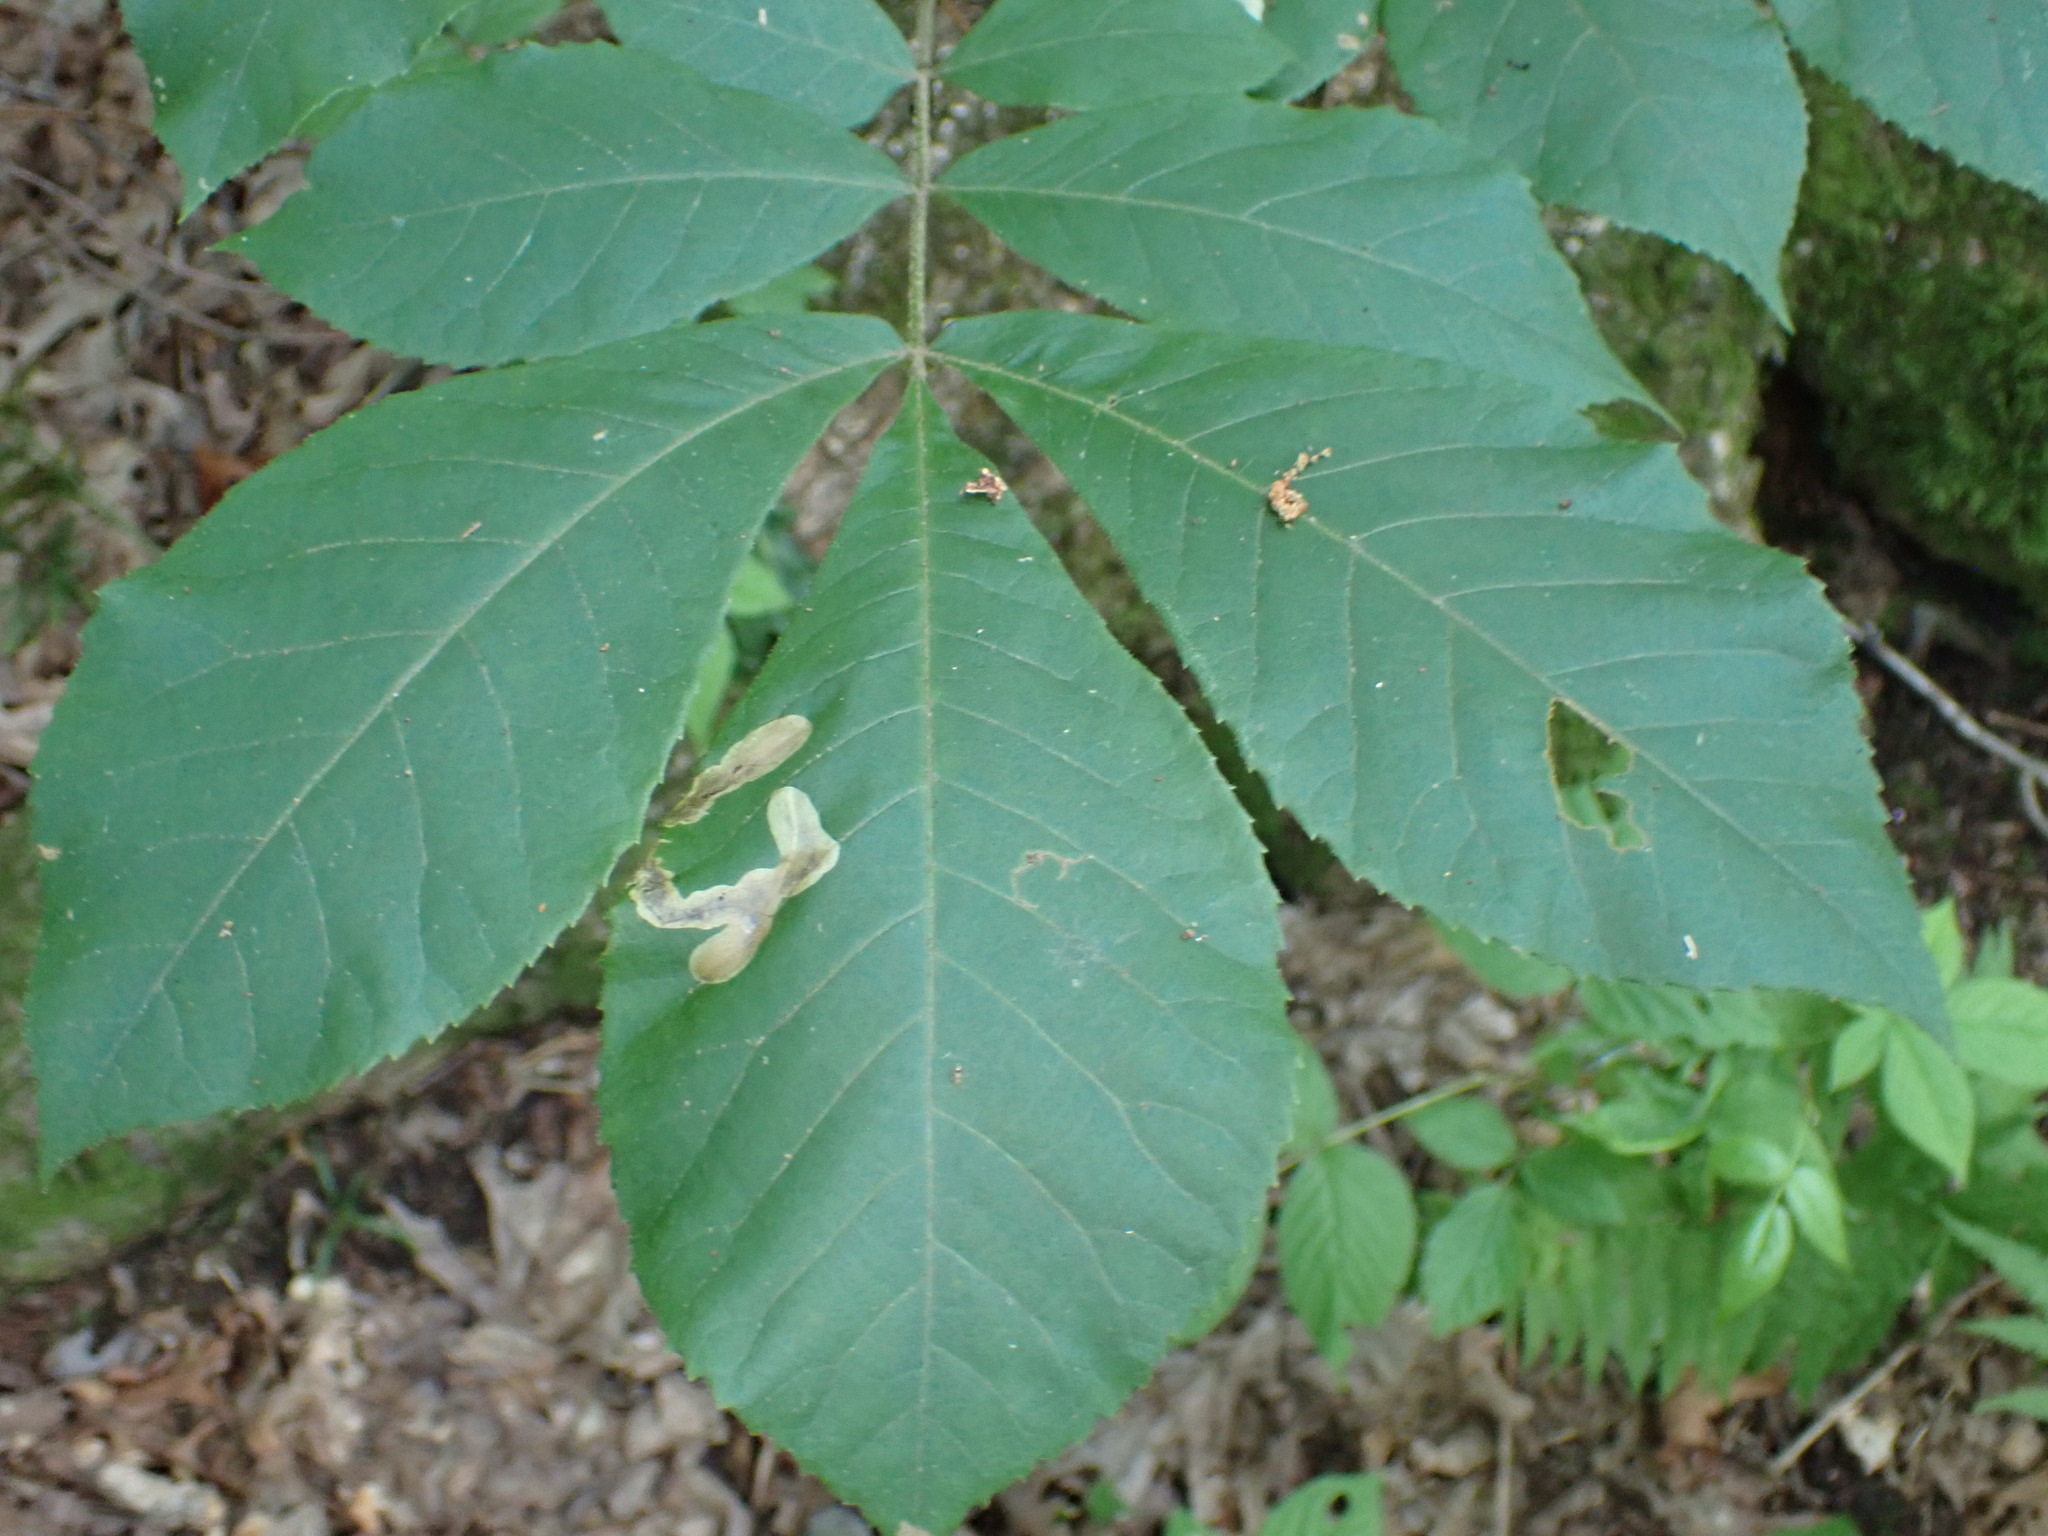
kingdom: Animalia
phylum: Arthropoda
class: Insecta
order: Lepidoptera
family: Gracillariidae
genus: Cameraria
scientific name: Cameraria caryaefoliella
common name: Pecan leafminer moth
